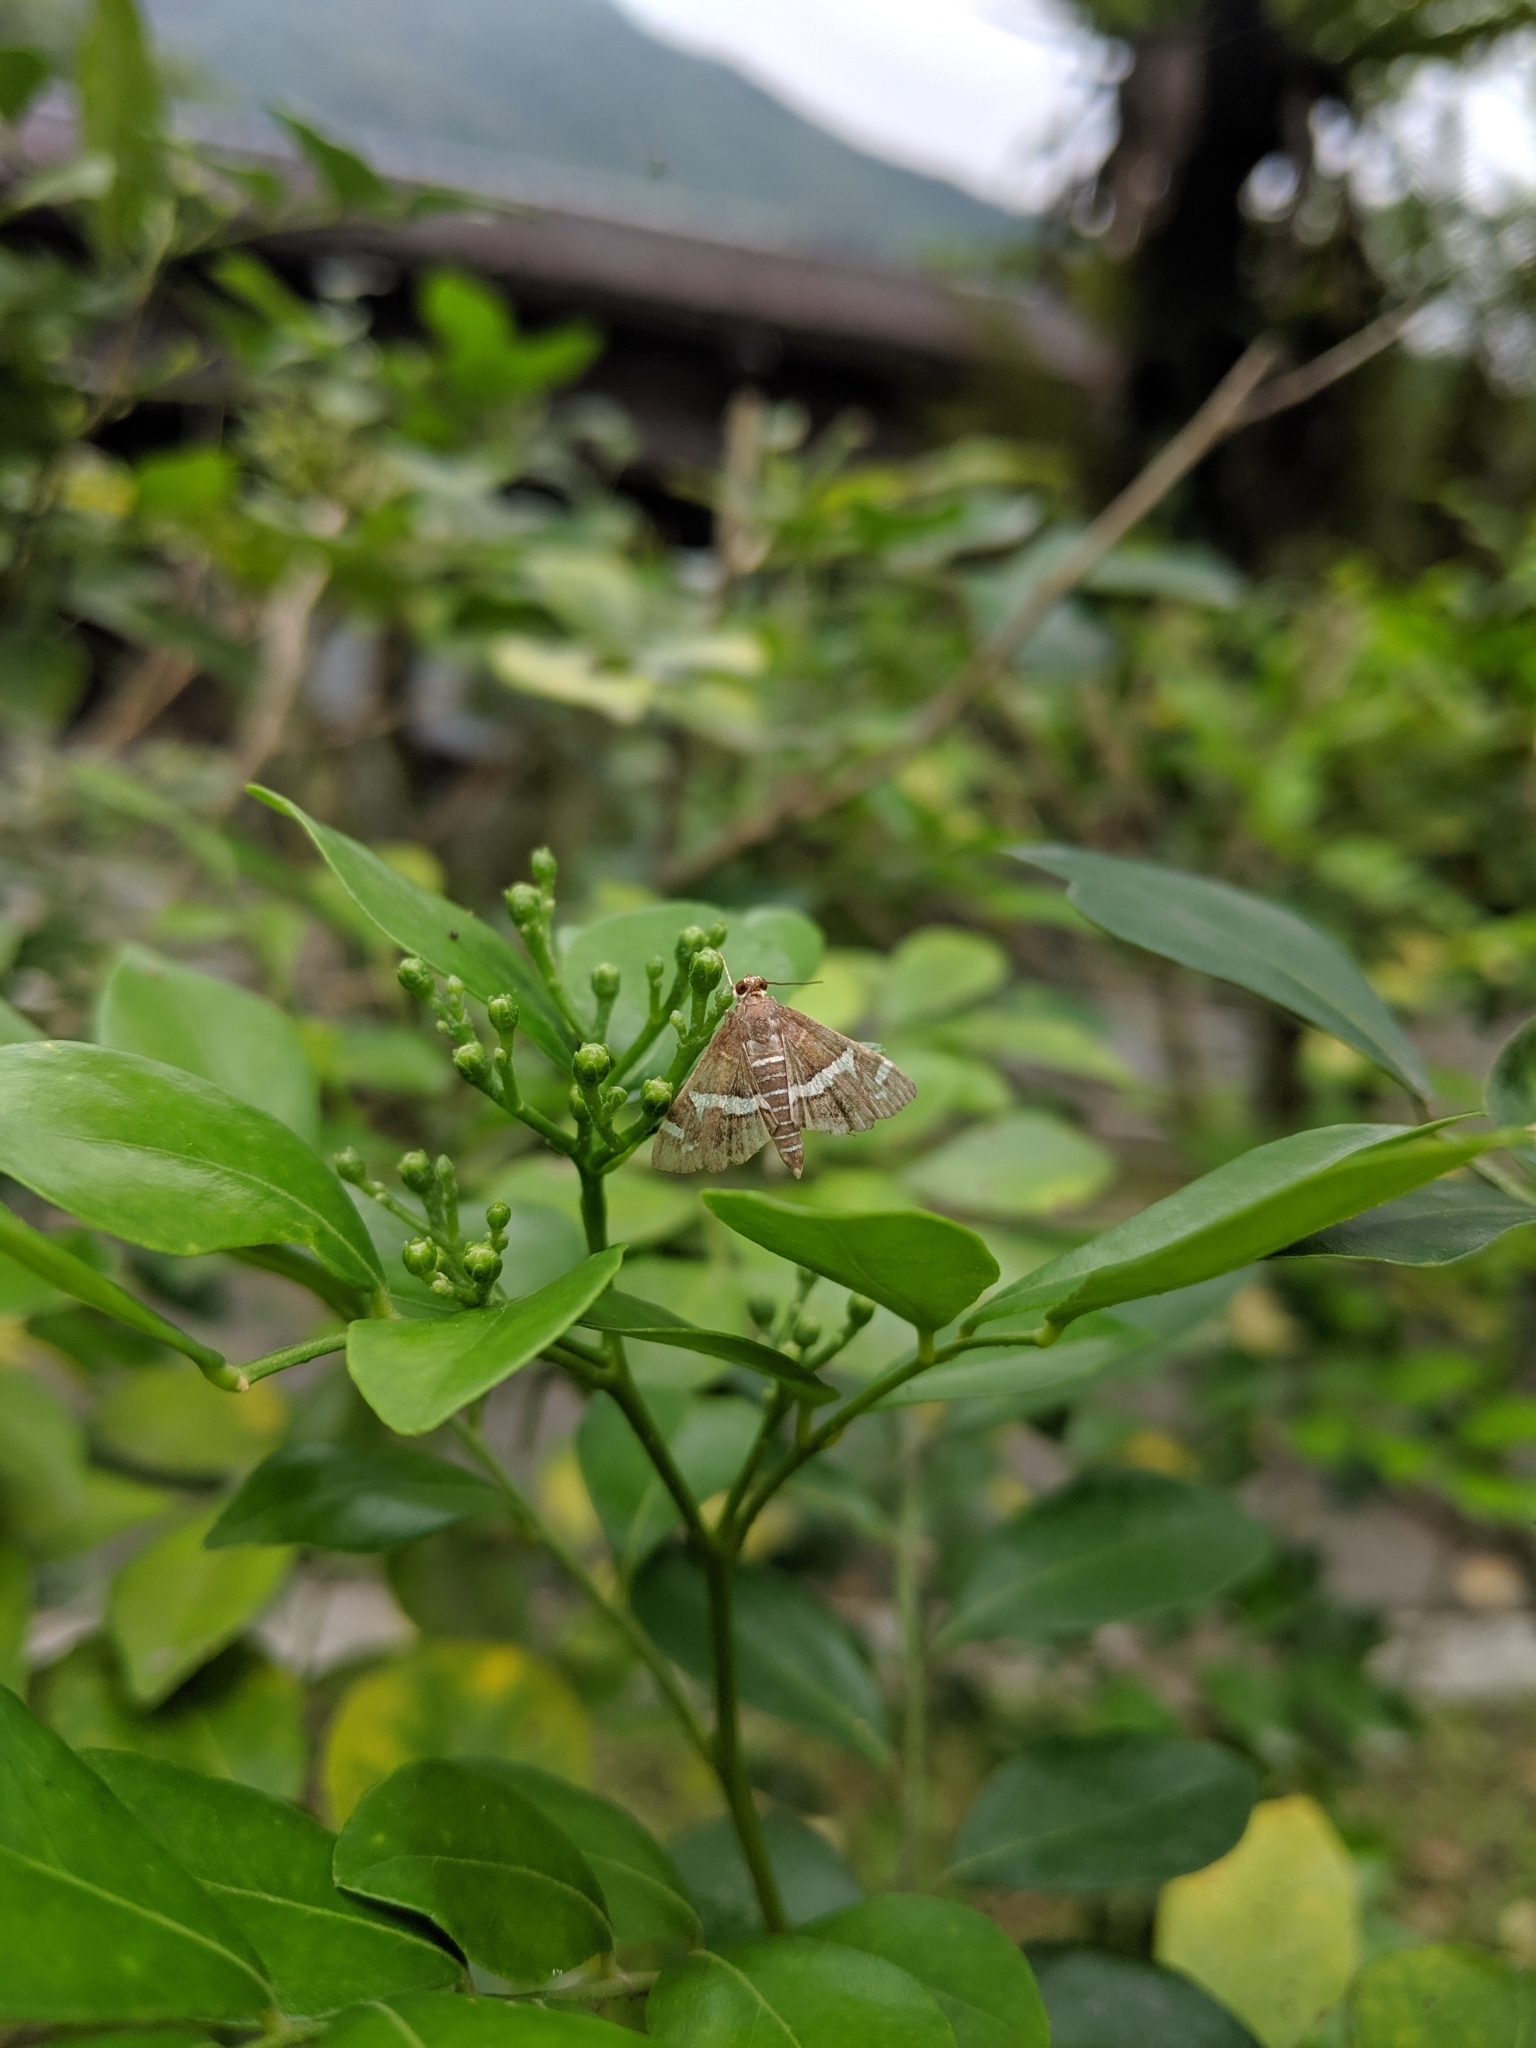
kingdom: Animalia
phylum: Arthropoda
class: Insecta
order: Lepidoptera
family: Crambidae
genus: Spoladea
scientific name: Spoladea recurvalis
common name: Beet webworm moth
